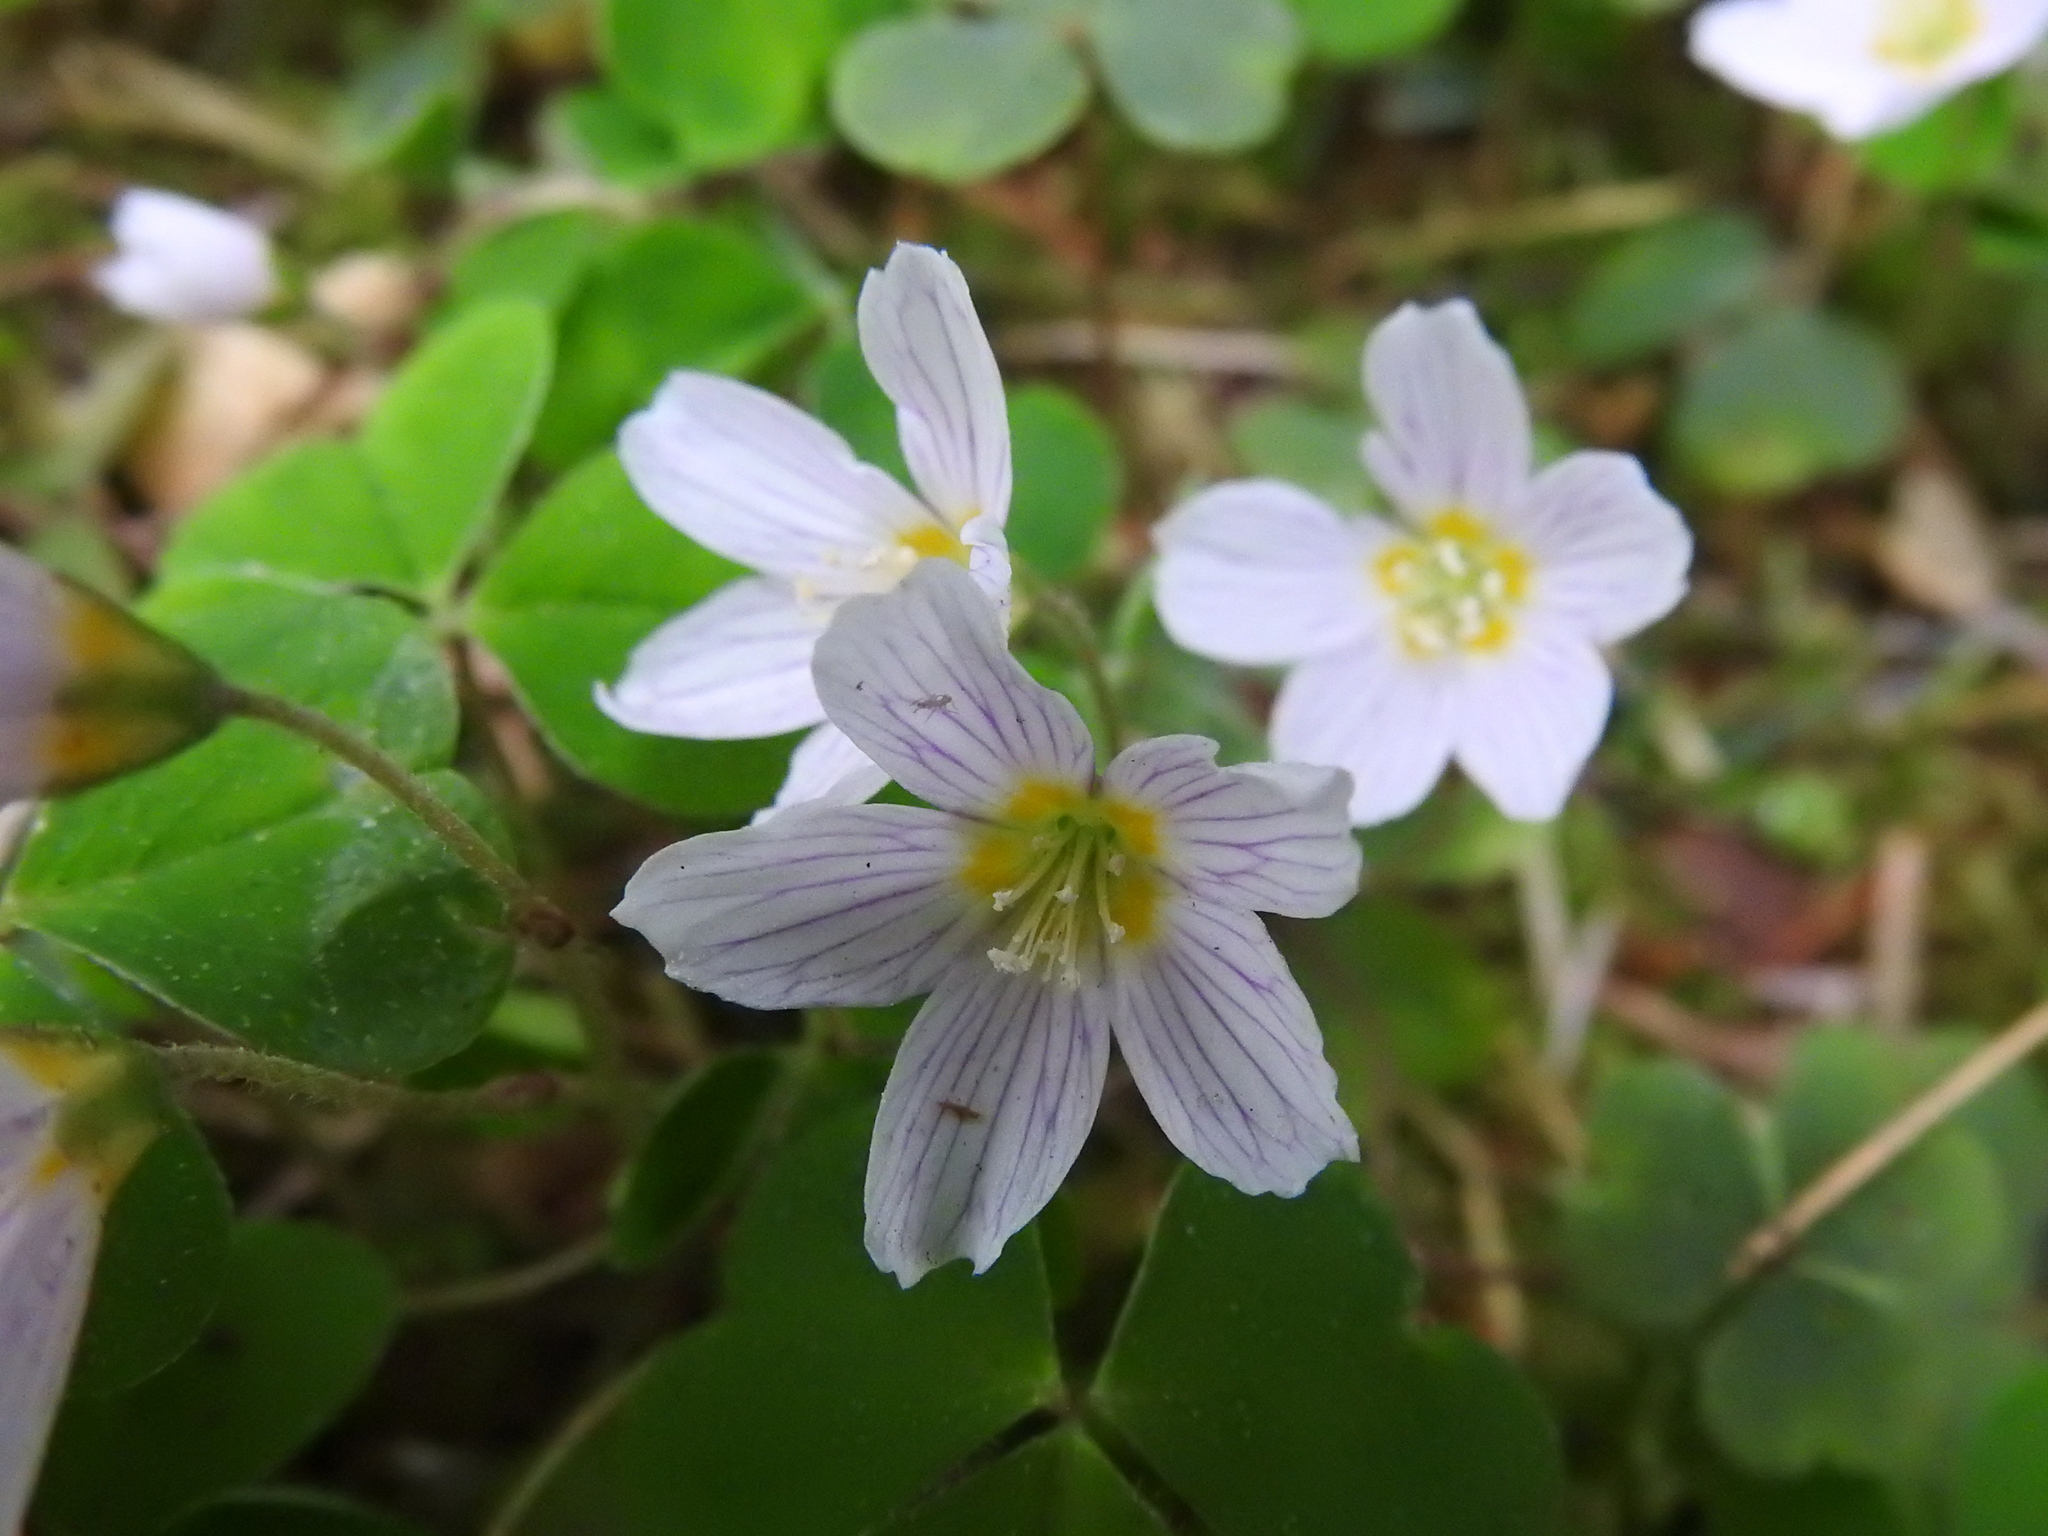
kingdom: Plantae
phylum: Tracheophyta
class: Magnoliopsida
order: Oxalidales
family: Oxalidaceae
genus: Oxalis
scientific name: Oxalis acetosella
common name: Wood-sorrel
